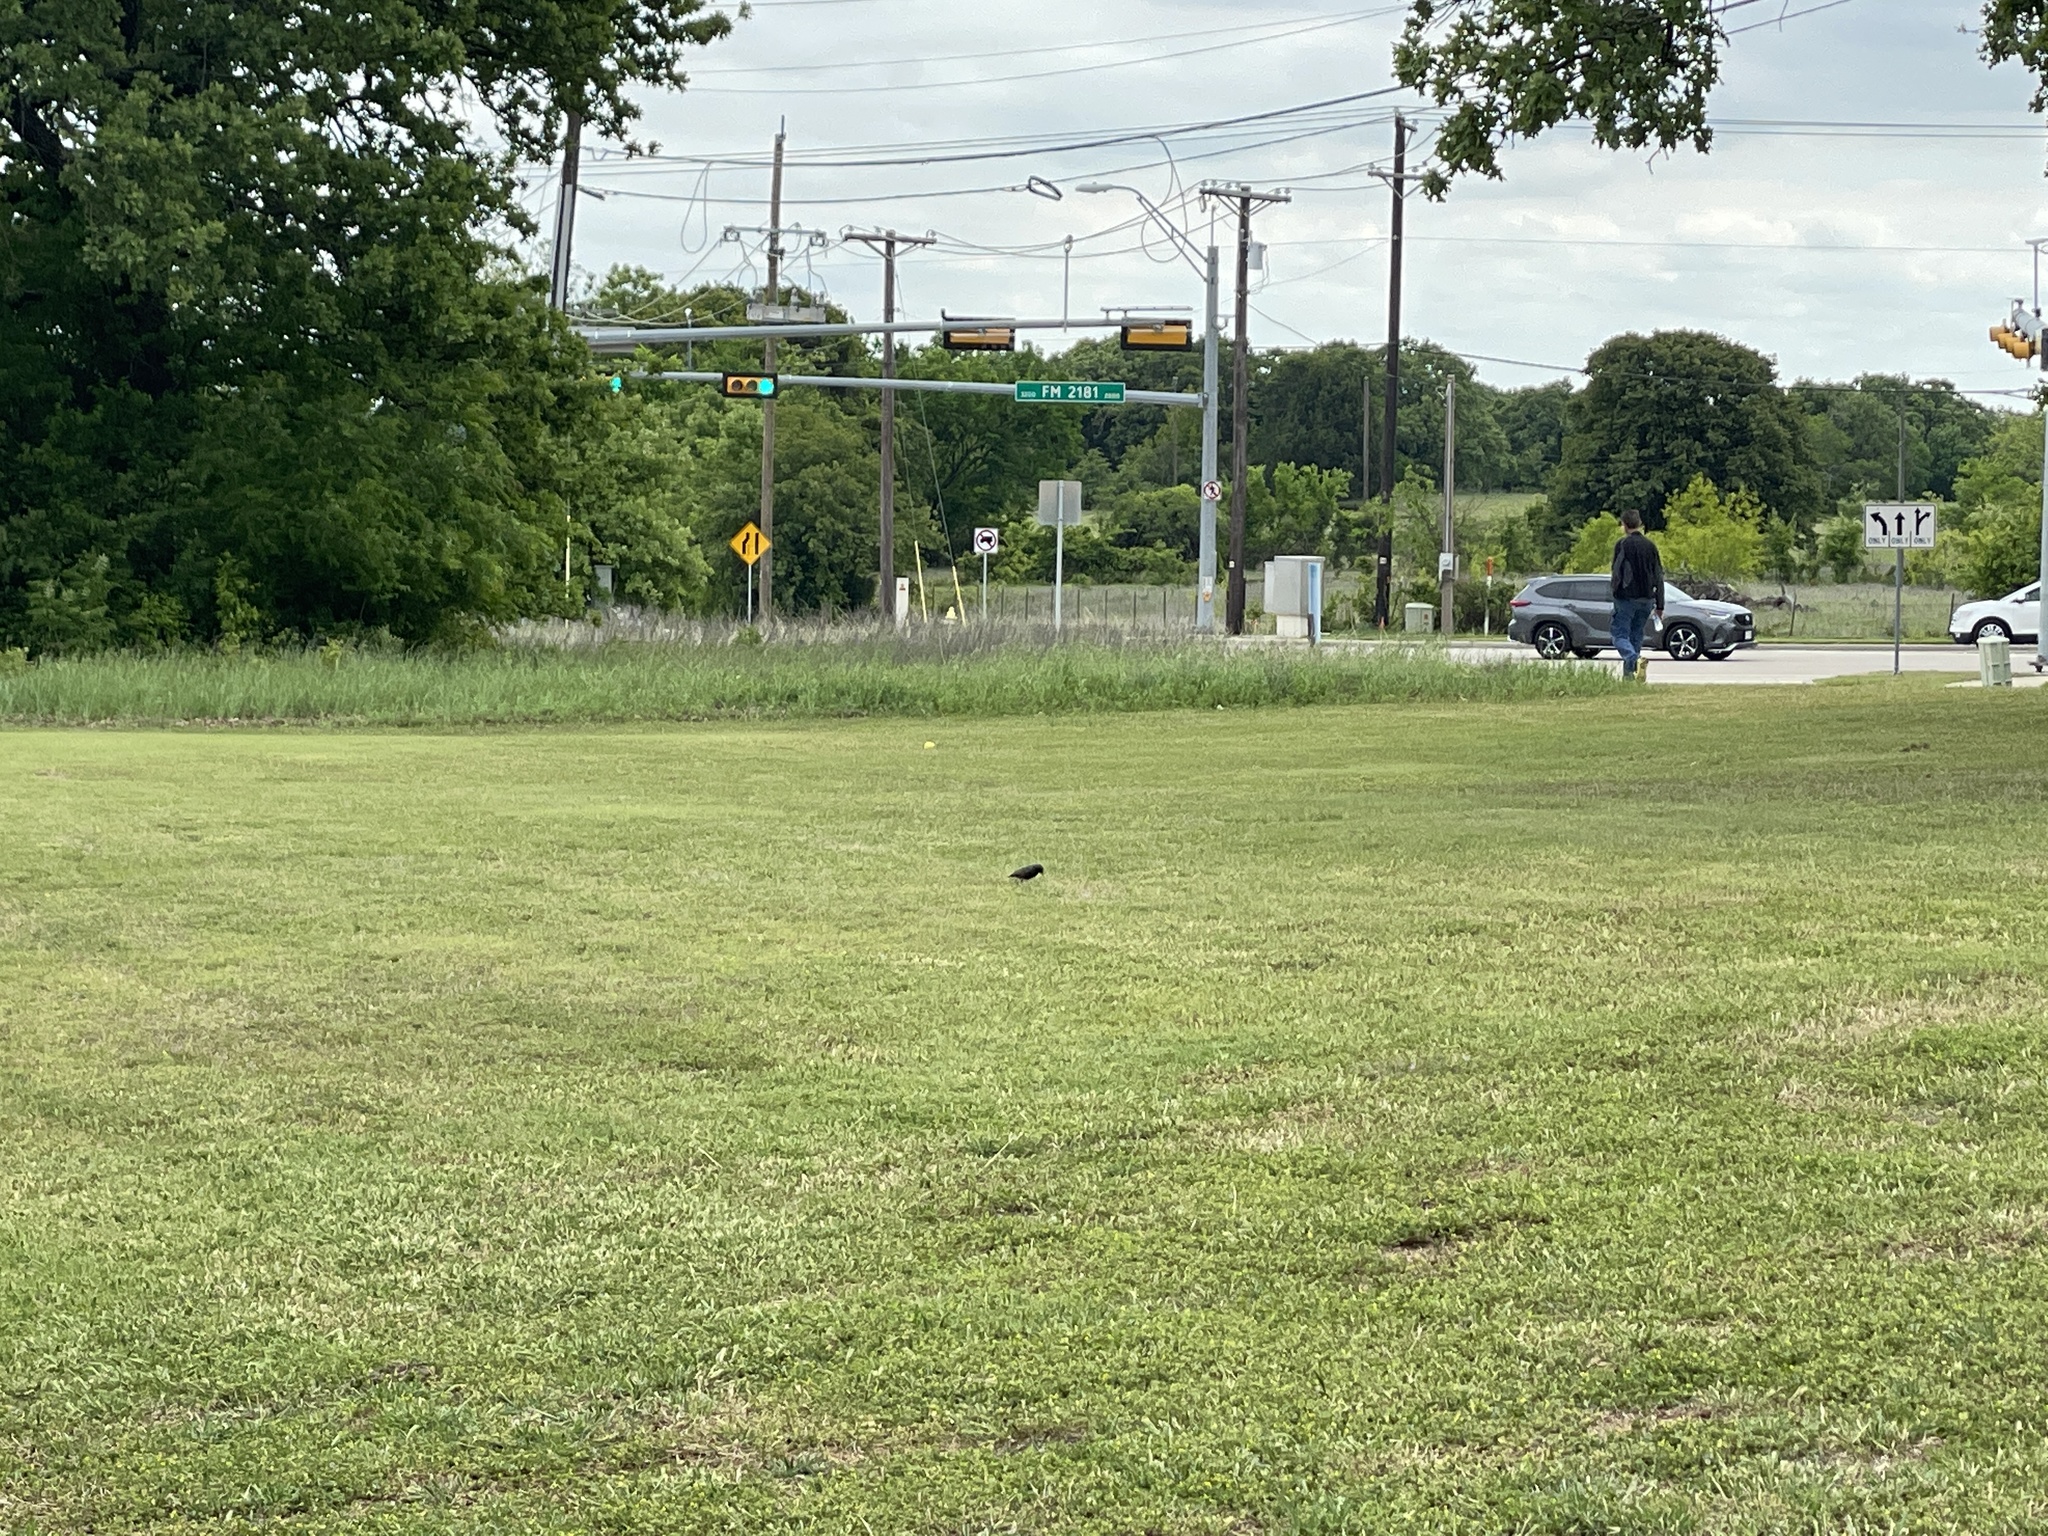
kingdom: Animalia
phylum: Chordata
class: Aves
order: Passeriformes
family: Sturnidae
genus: Sturnus
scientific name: Sturnus vulgaris
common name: Common starling
